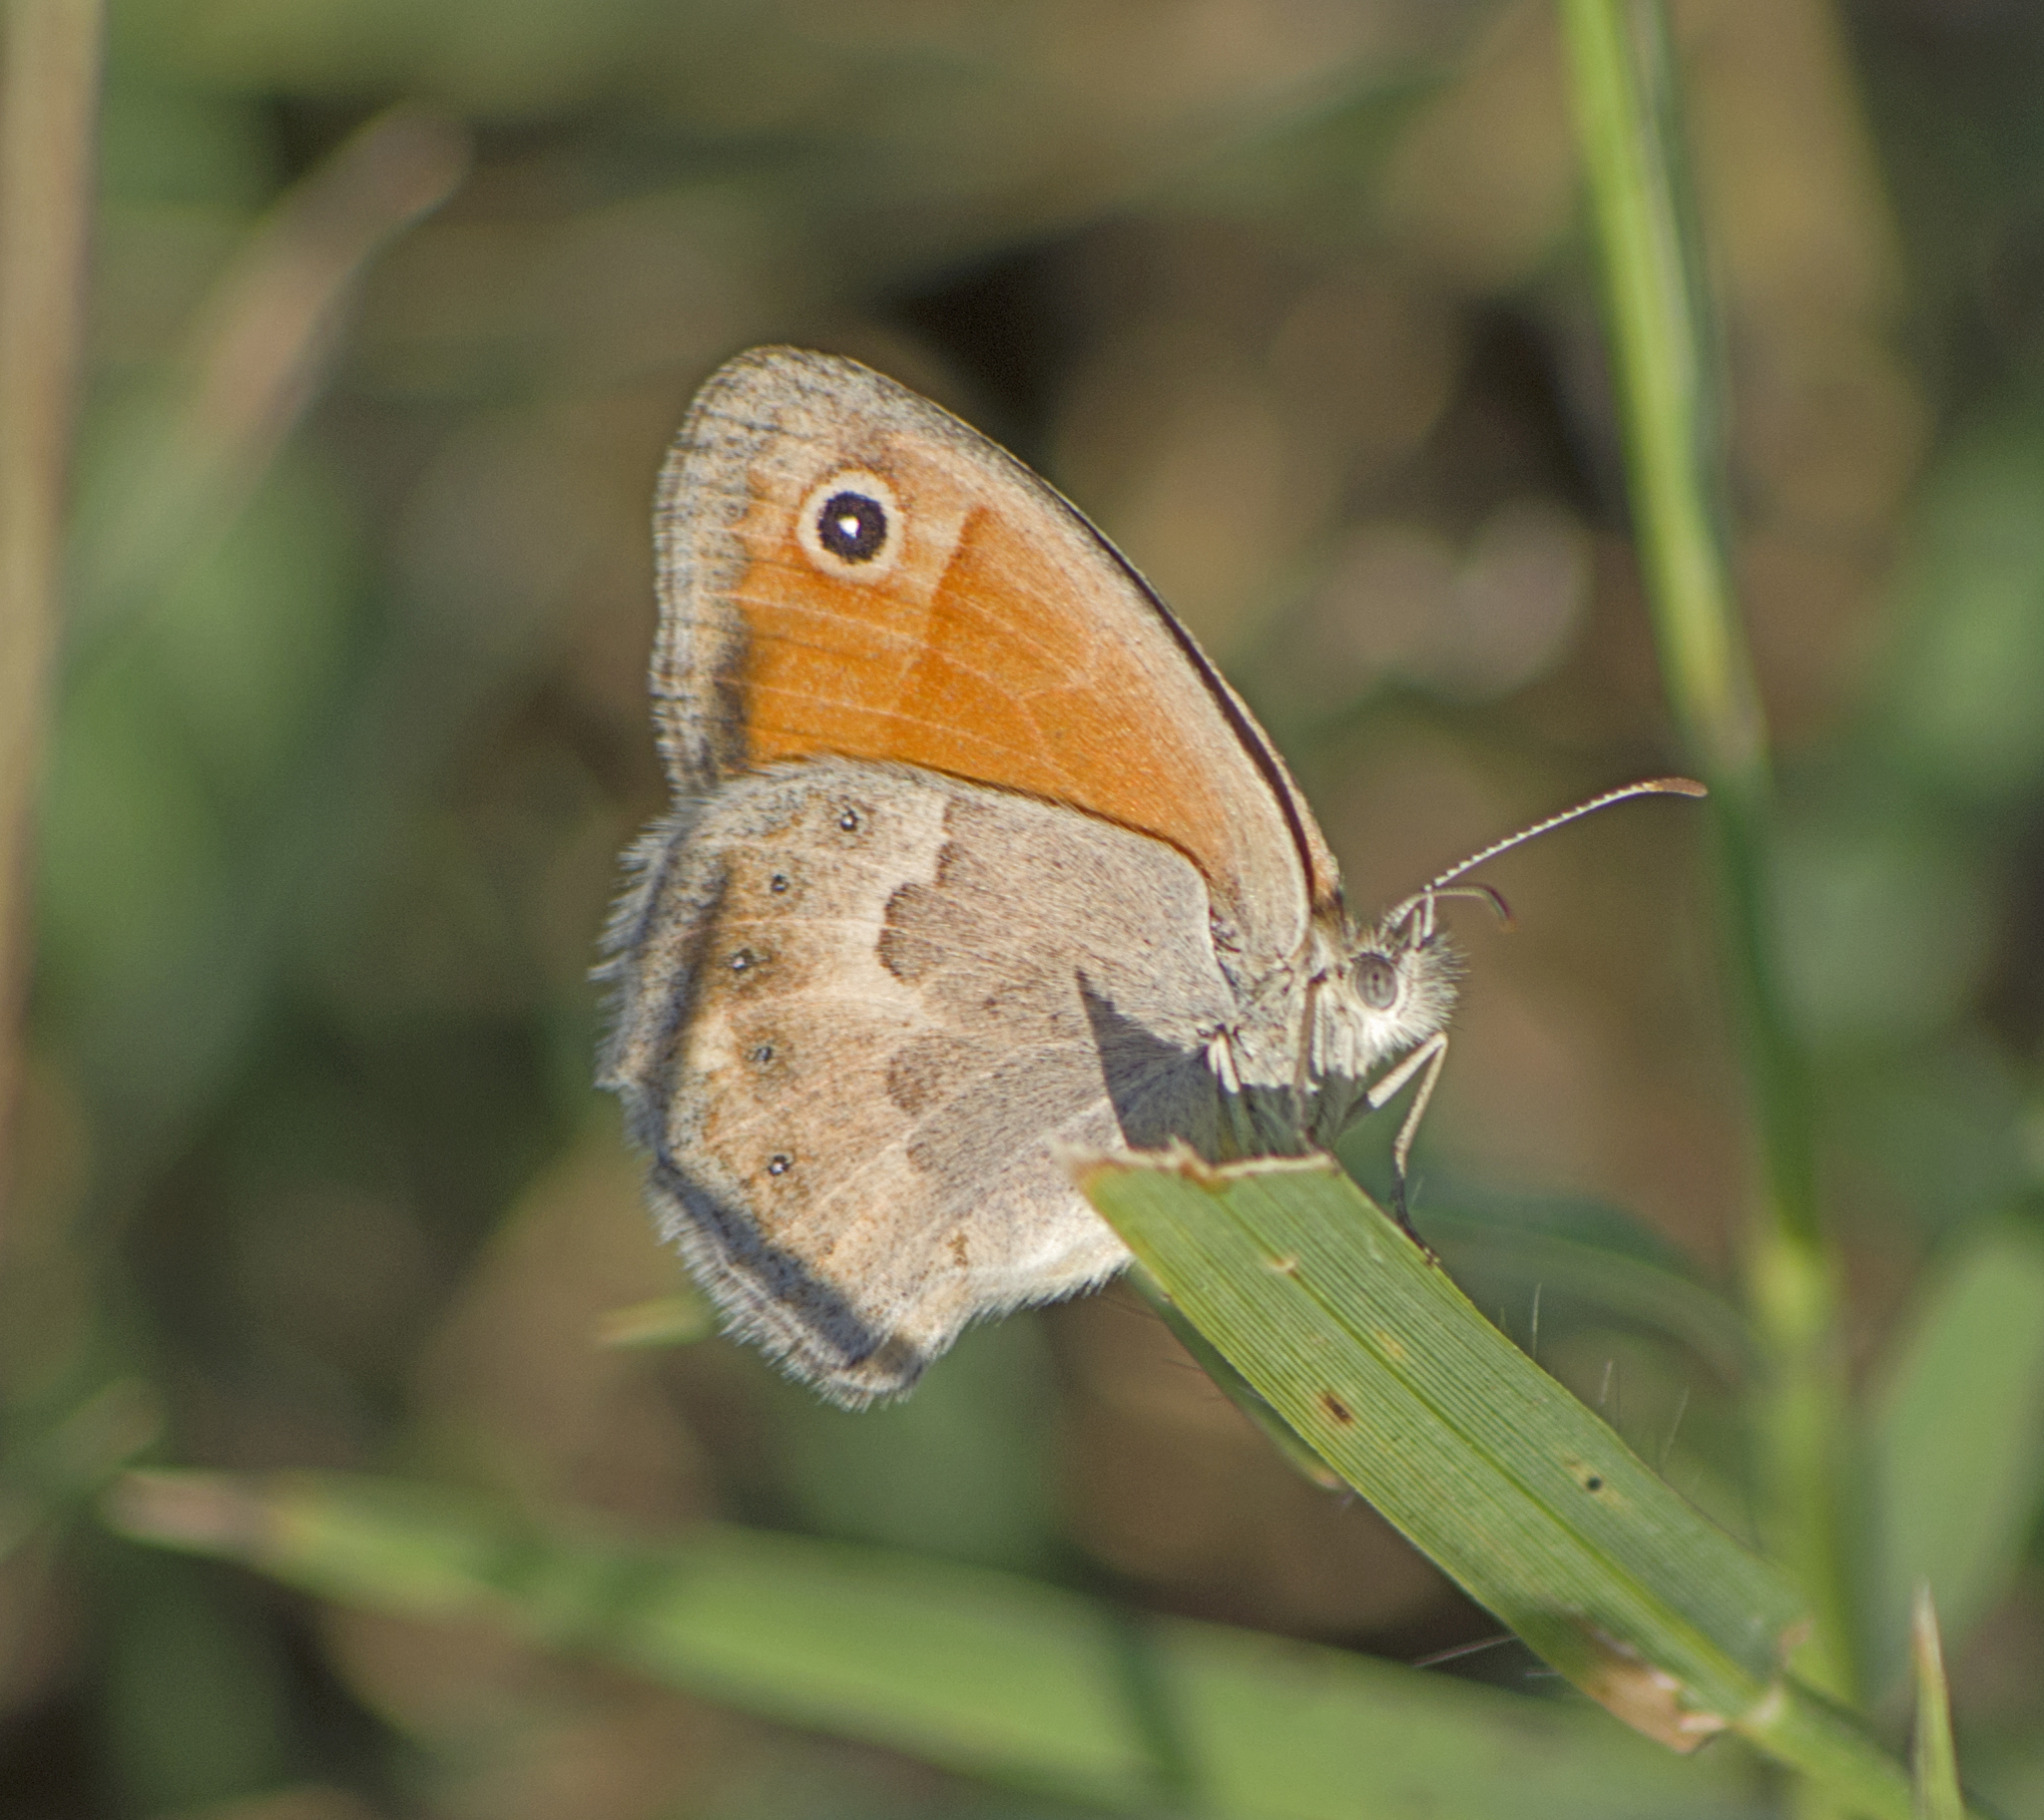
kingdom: Animalia
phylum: Arthropoda
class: Insecta
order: Lepidoptera
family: Nymphalidae
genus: Coenonympha
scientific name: Coenonympha pamphilus
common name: Small heath
